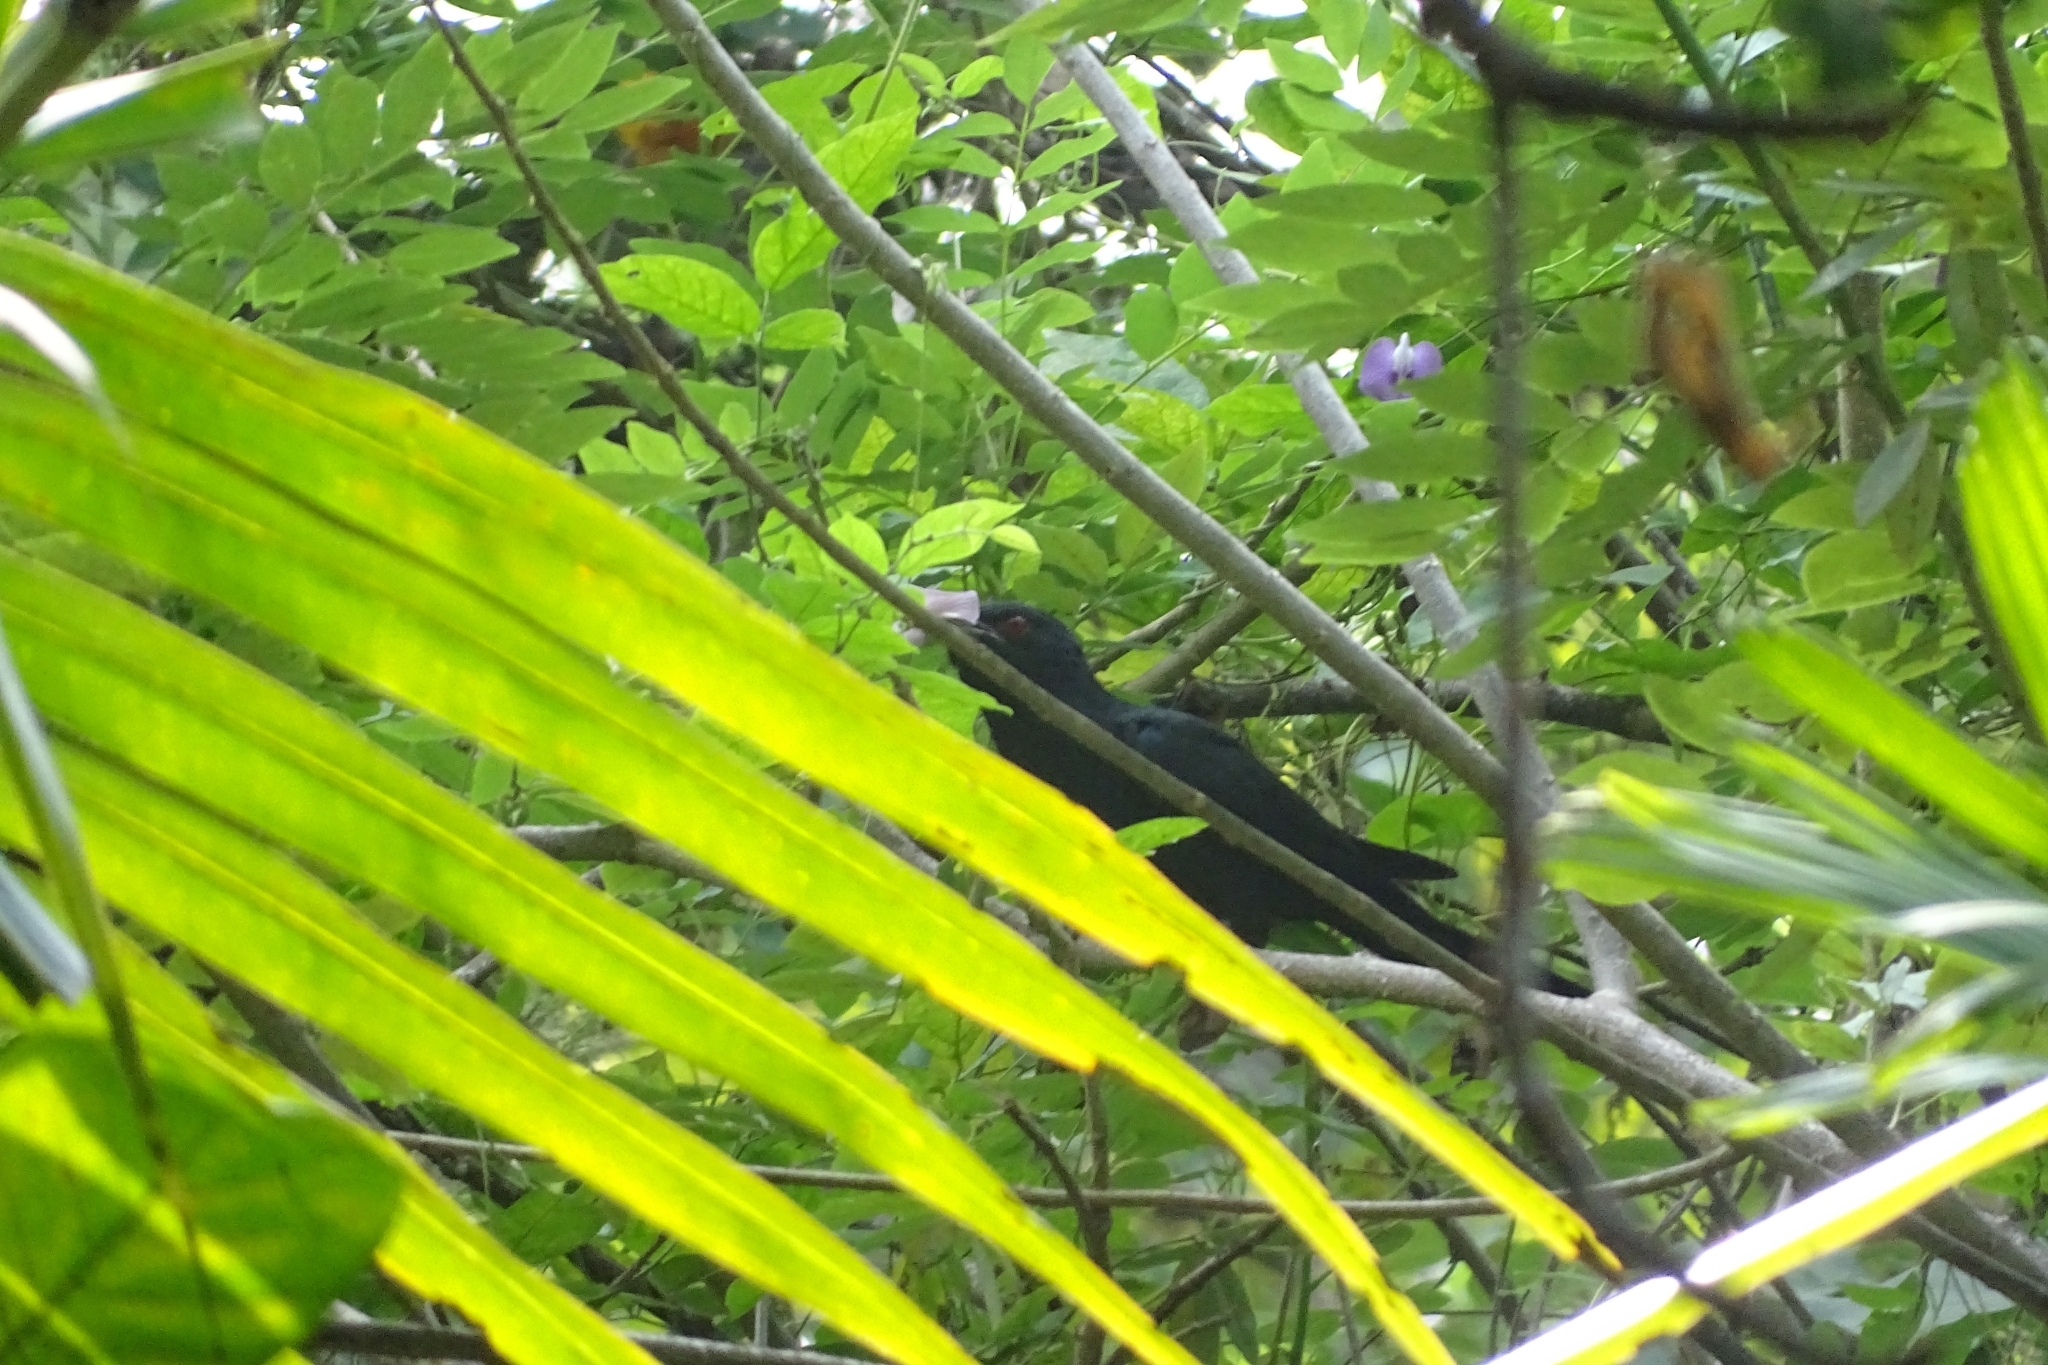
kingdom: Animalia
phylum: Chordata
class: Aves
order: Cuculiformes
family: Cuculidae
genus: Eudynamys
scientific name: Eudynamys scolopaceus
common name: Asian koel
